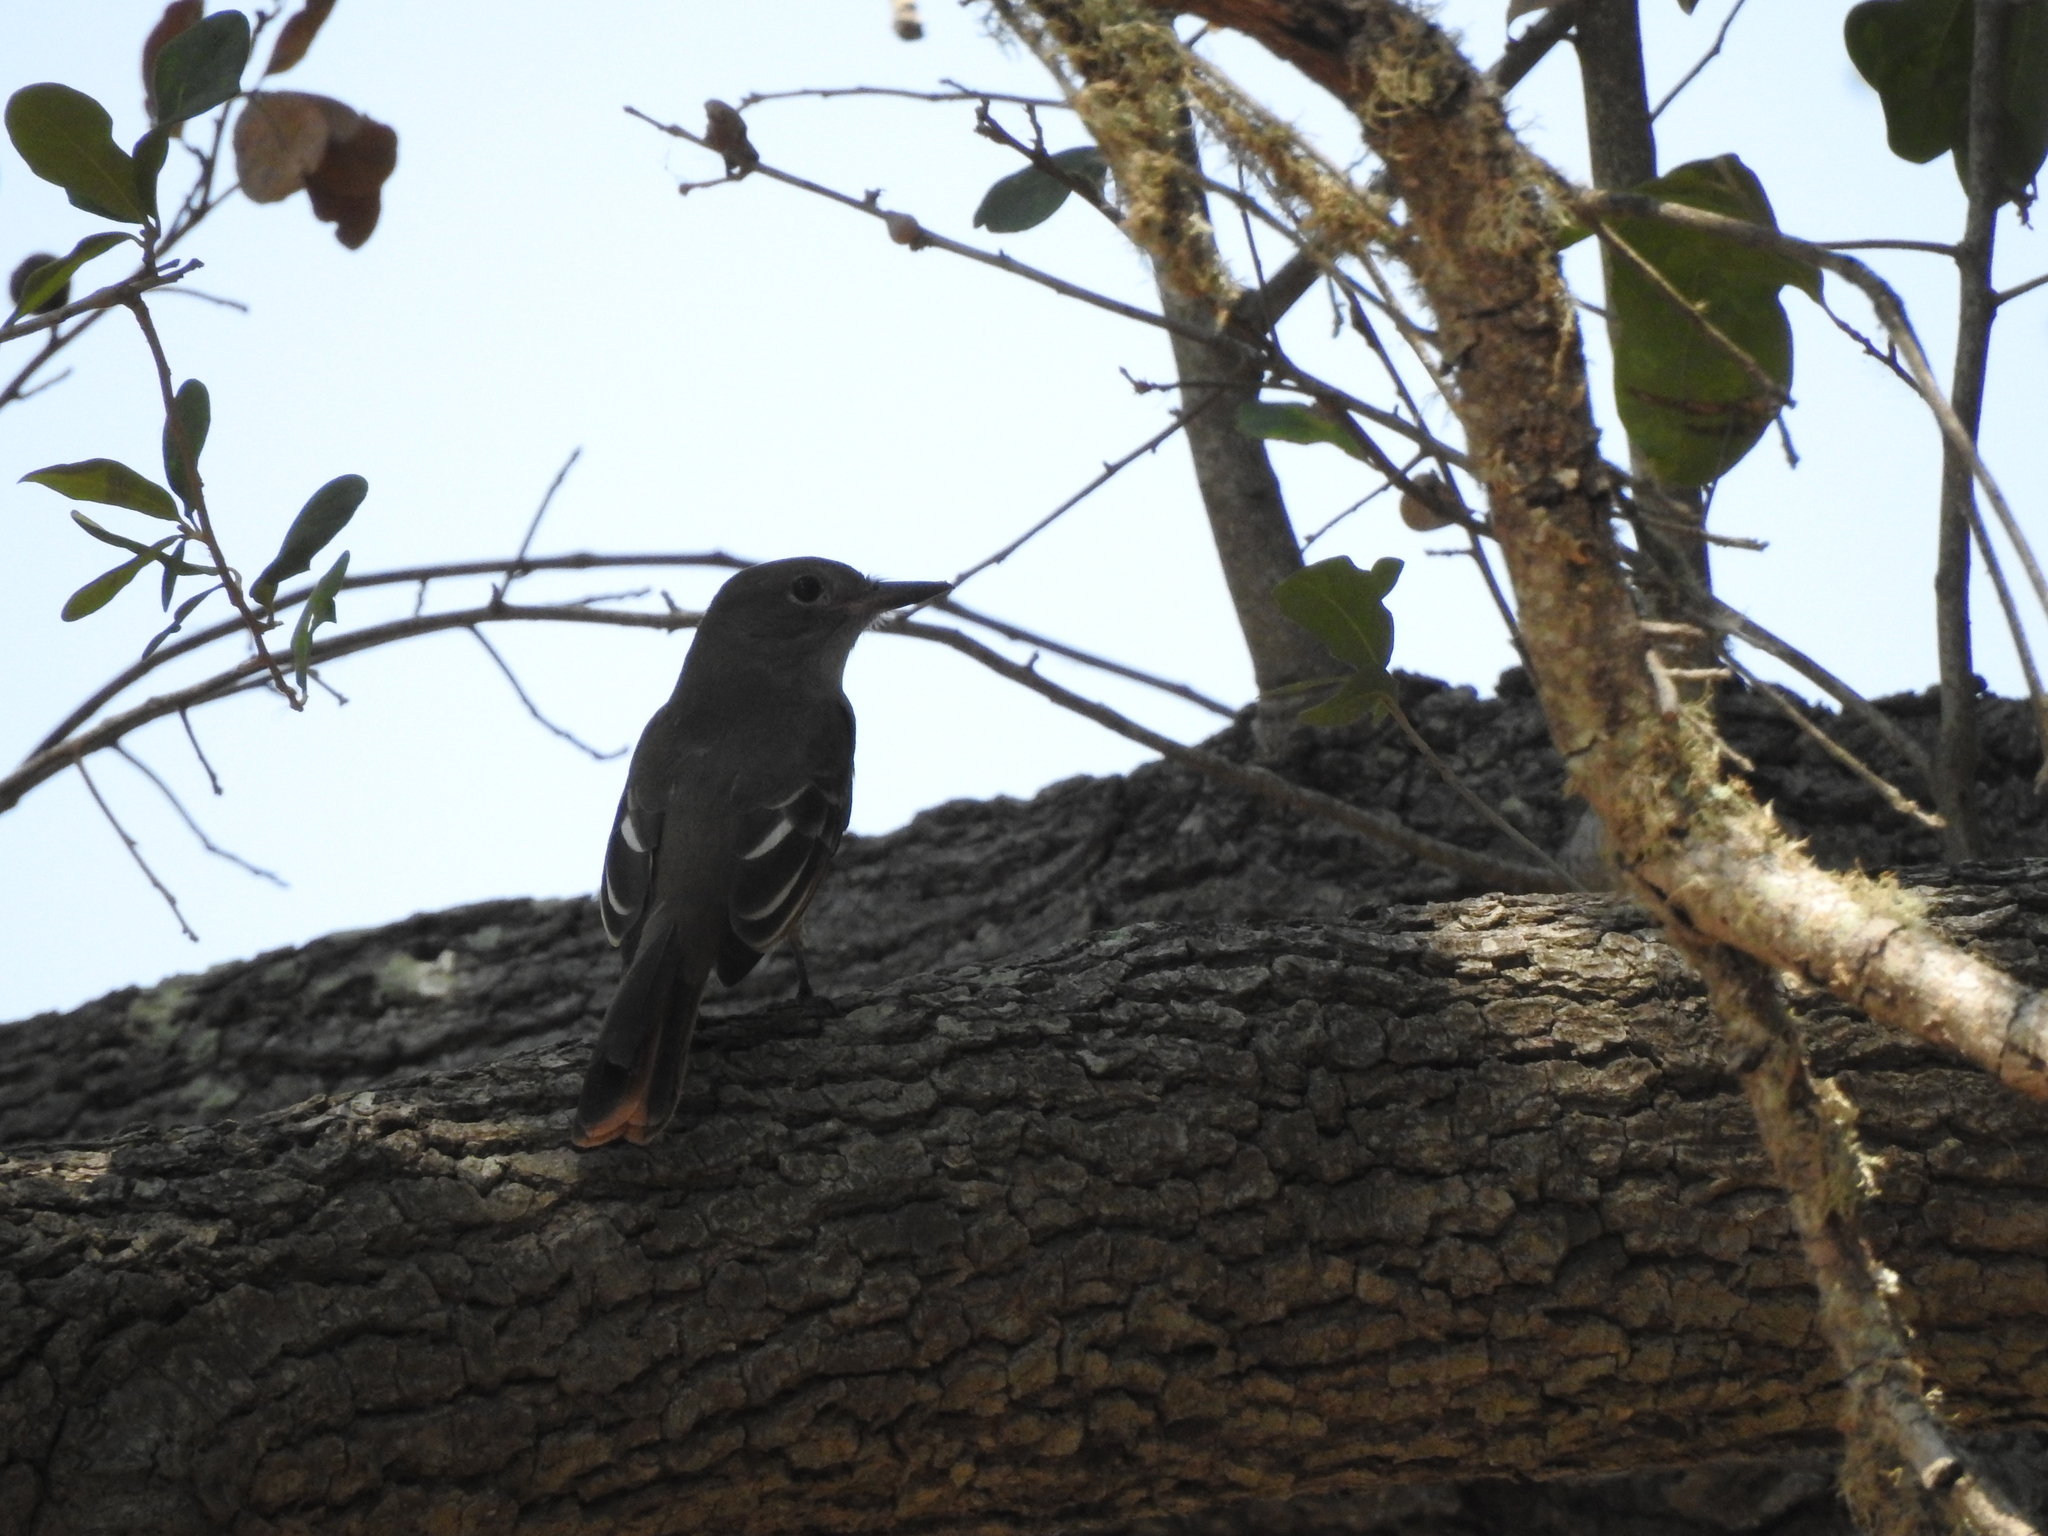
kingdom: Animalia
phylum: Chordata
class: Aves
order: Passeriformes
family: Tyrannidae
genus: Myiarchus
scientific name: Myiarchus crinitus
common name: Great crested flycatcher
